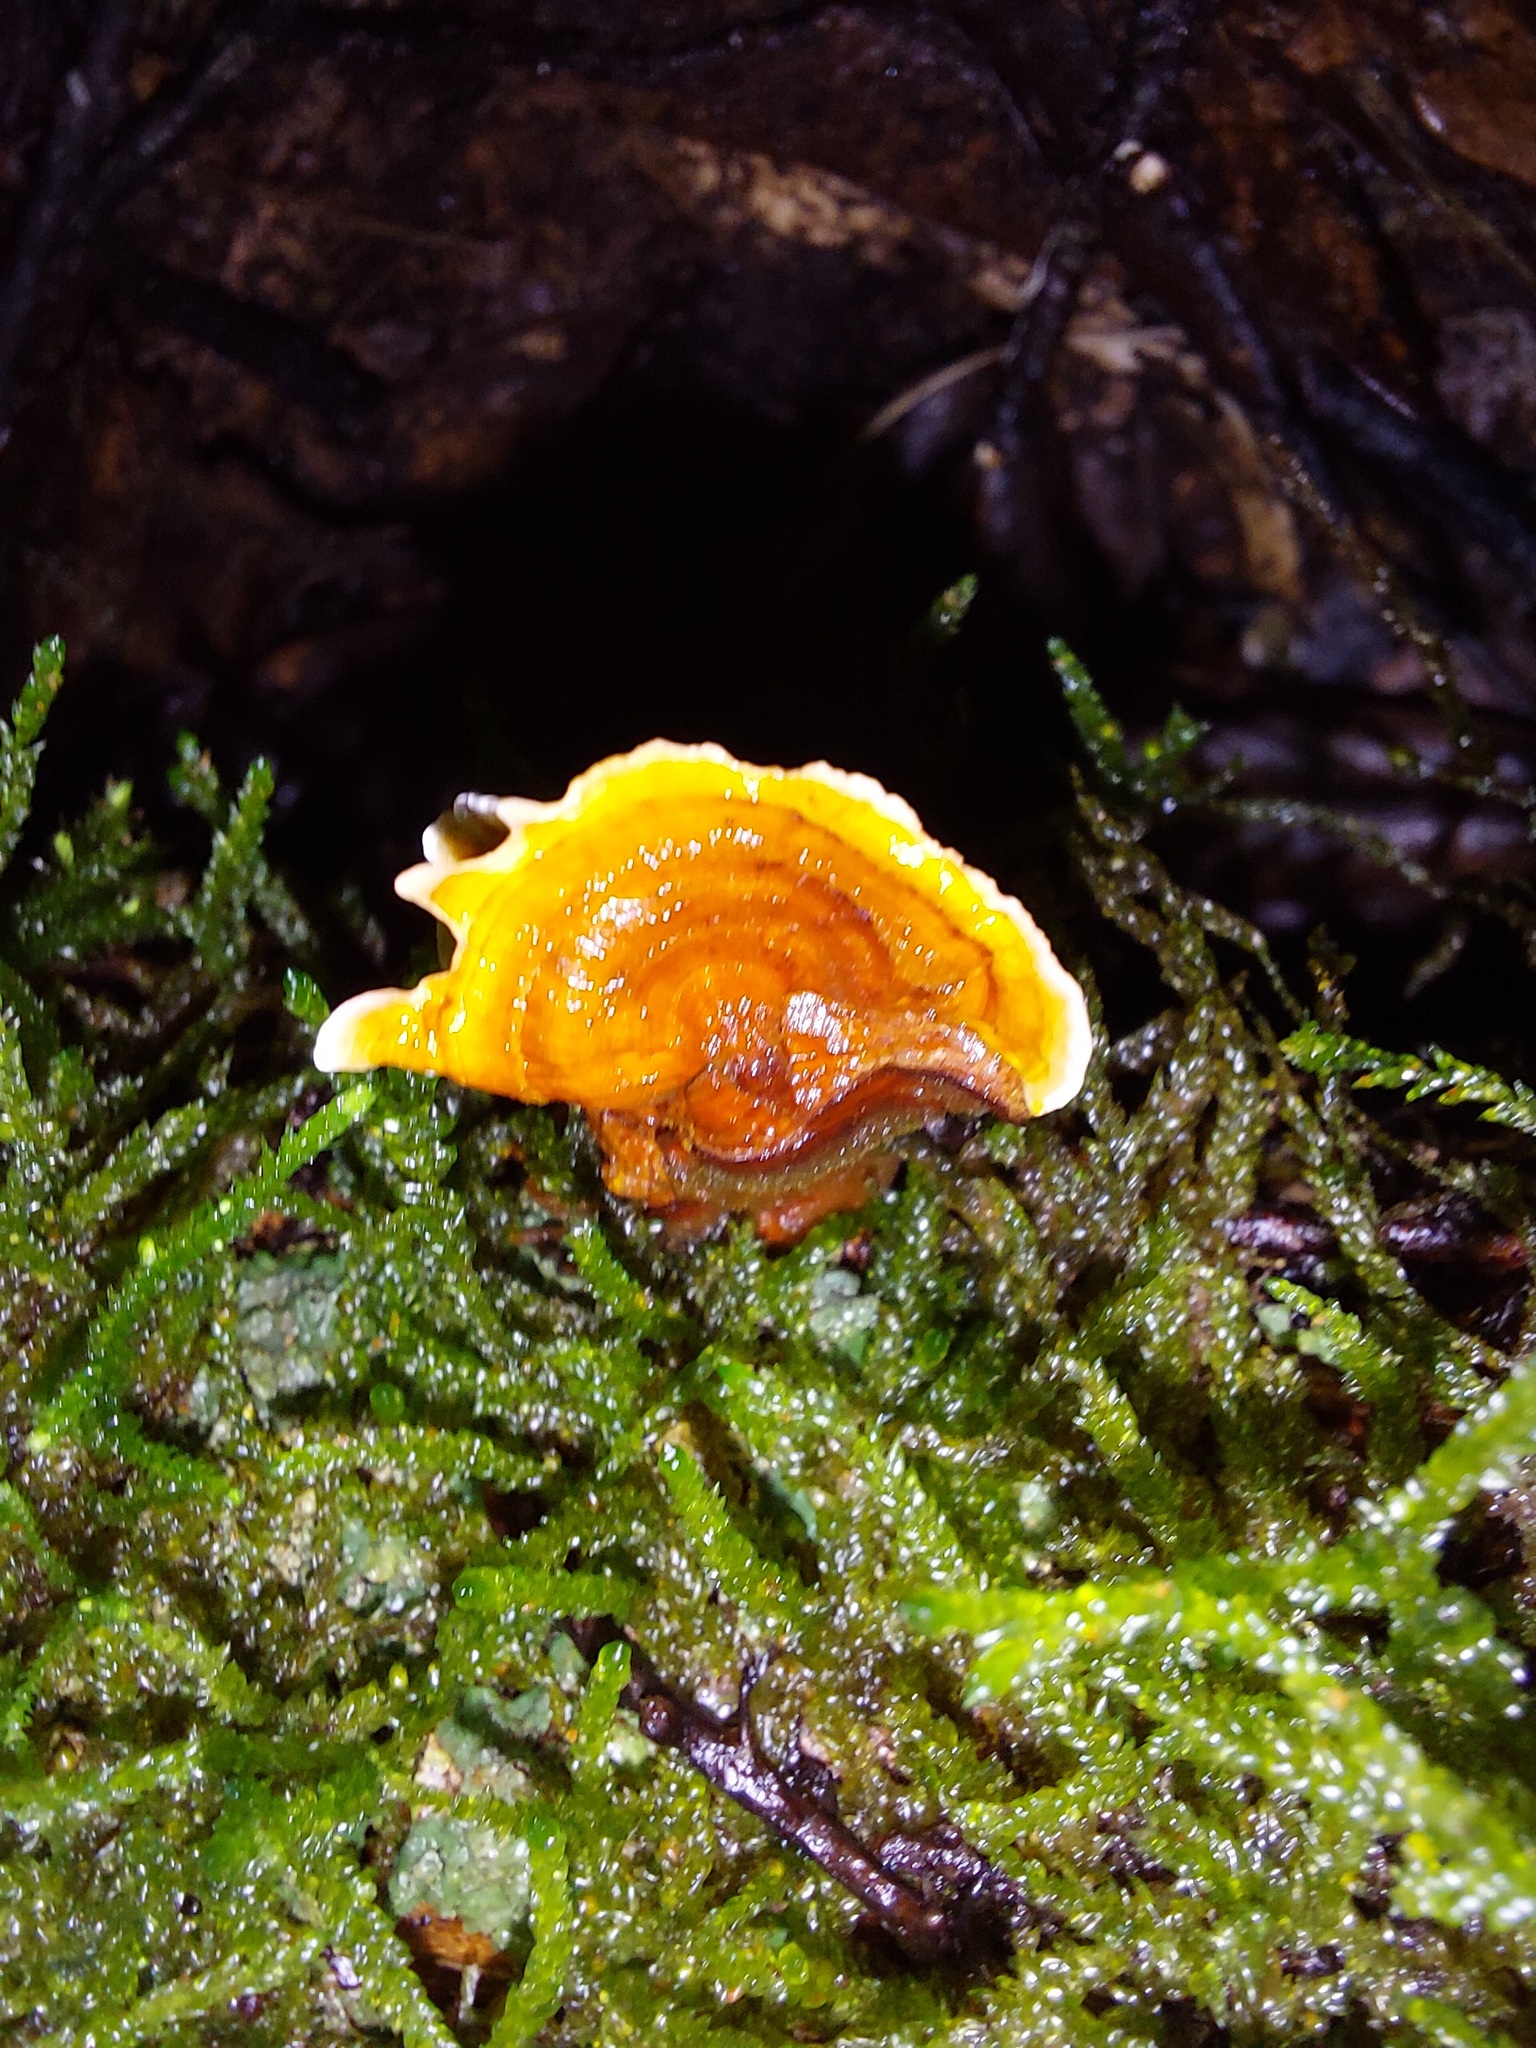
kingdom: Fungi
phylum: Basidiomycota
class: Agaricomycetes
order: Russulales
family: Stereaceae
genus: Stereum
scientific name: Stereum ostrea
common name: False turkeytail
